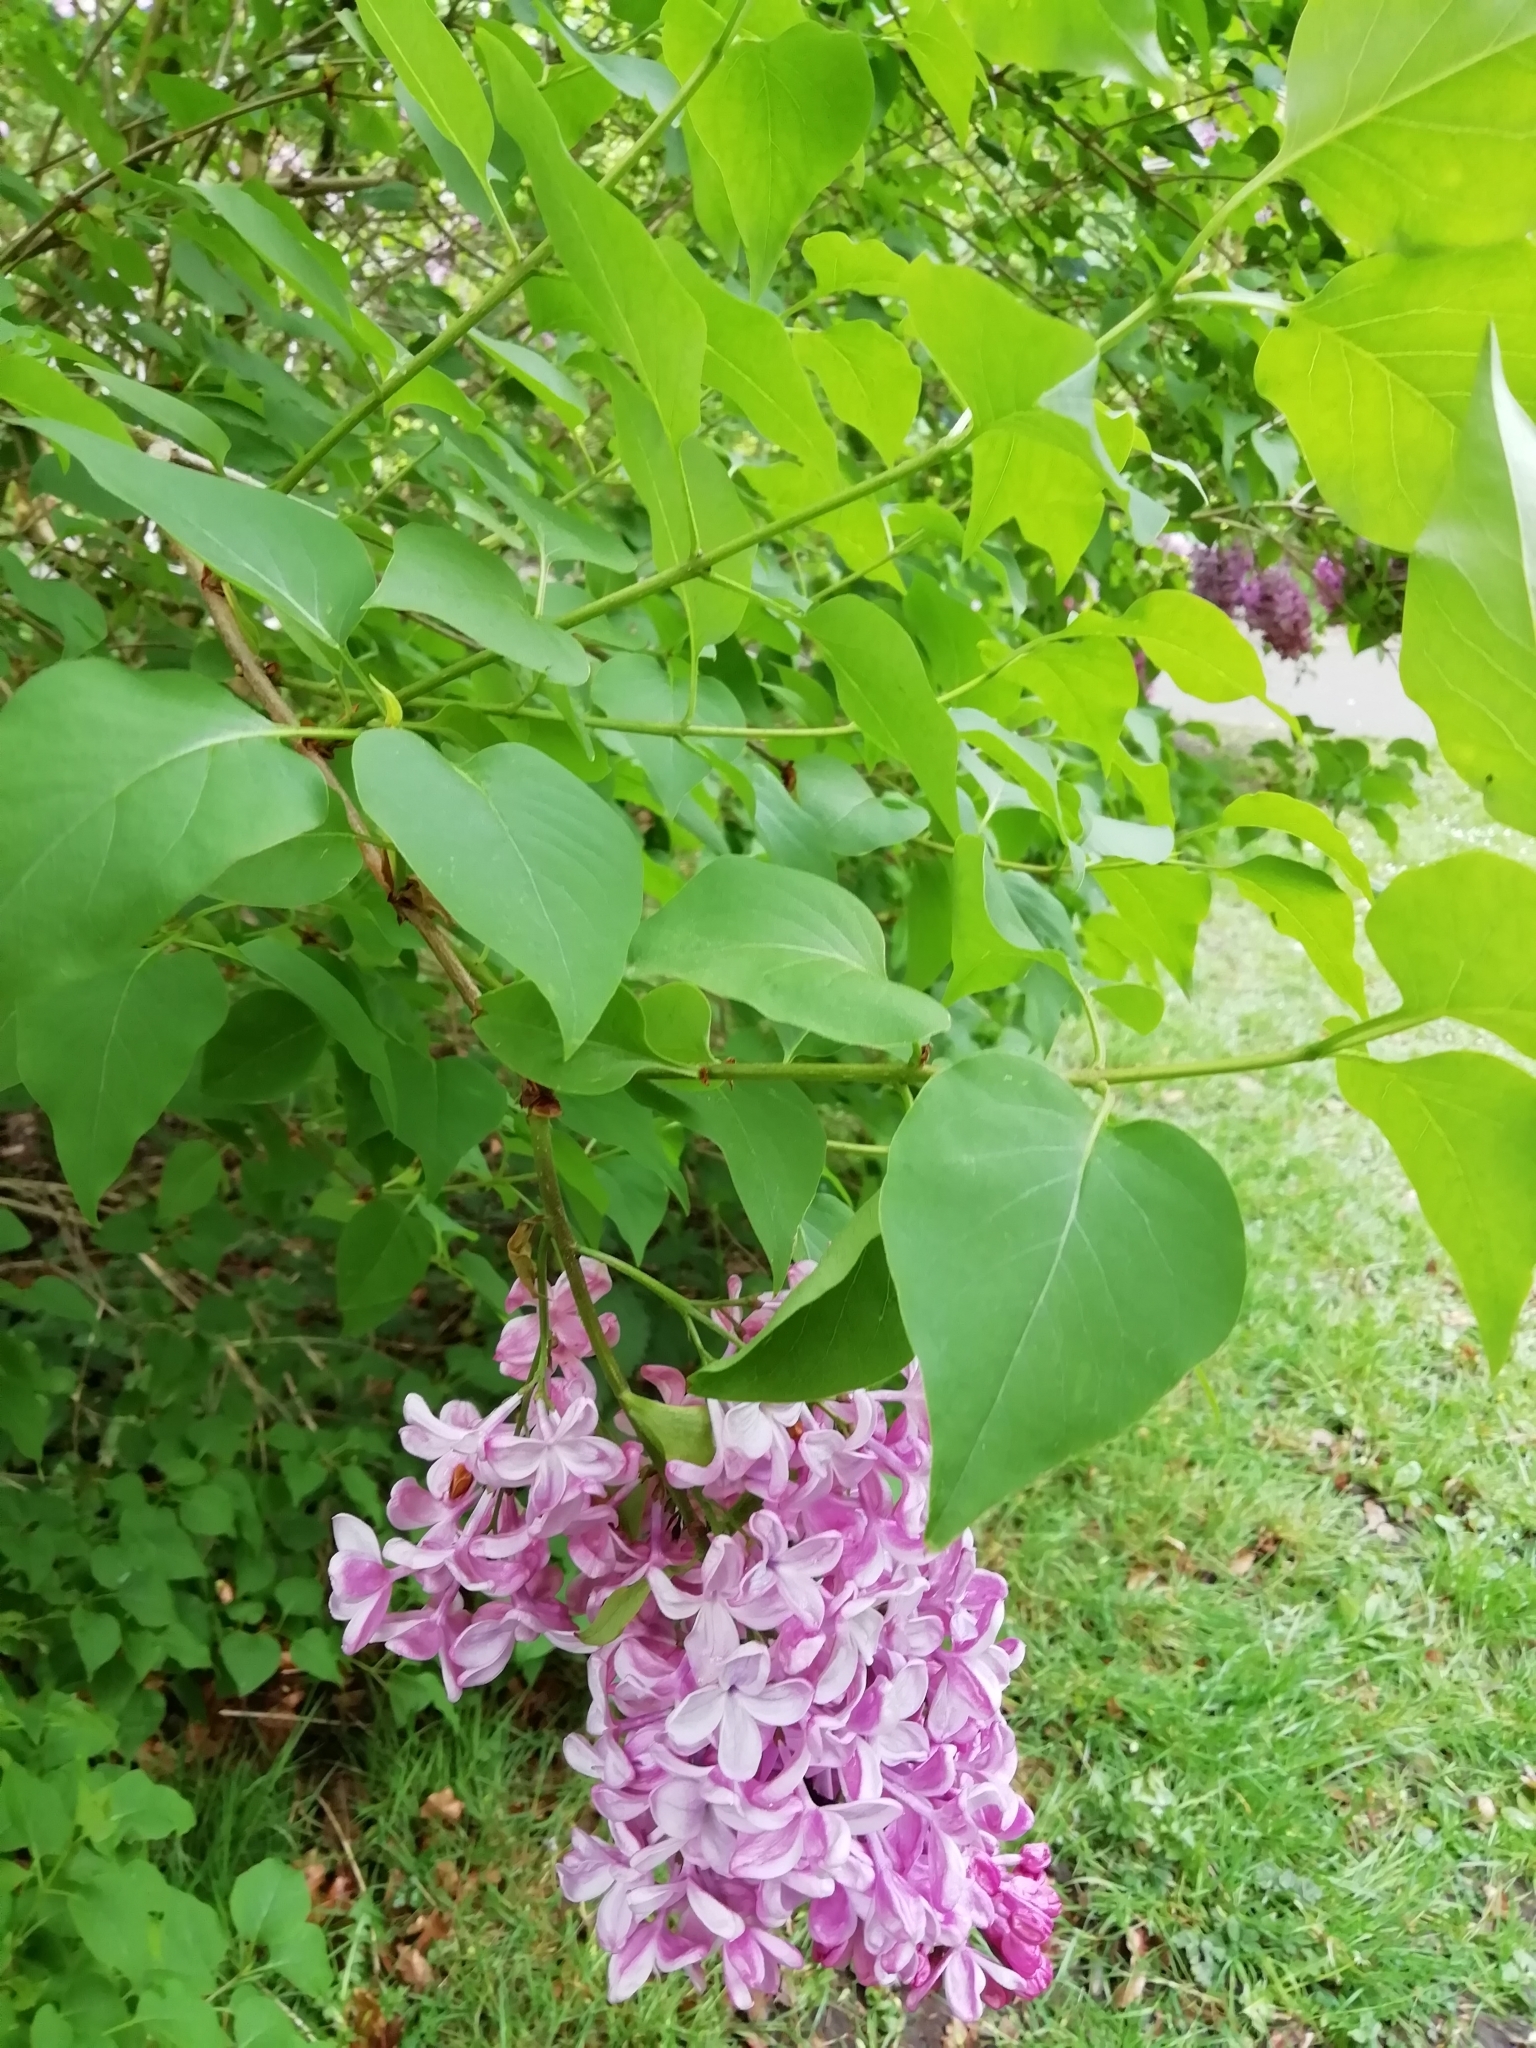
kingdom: Plantae
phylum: Tracheophyta
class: Magnoliopsida
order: Lamiales
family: Oleaceae
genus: Syringa
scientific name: Syringa vulgaris
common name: Common lilac
